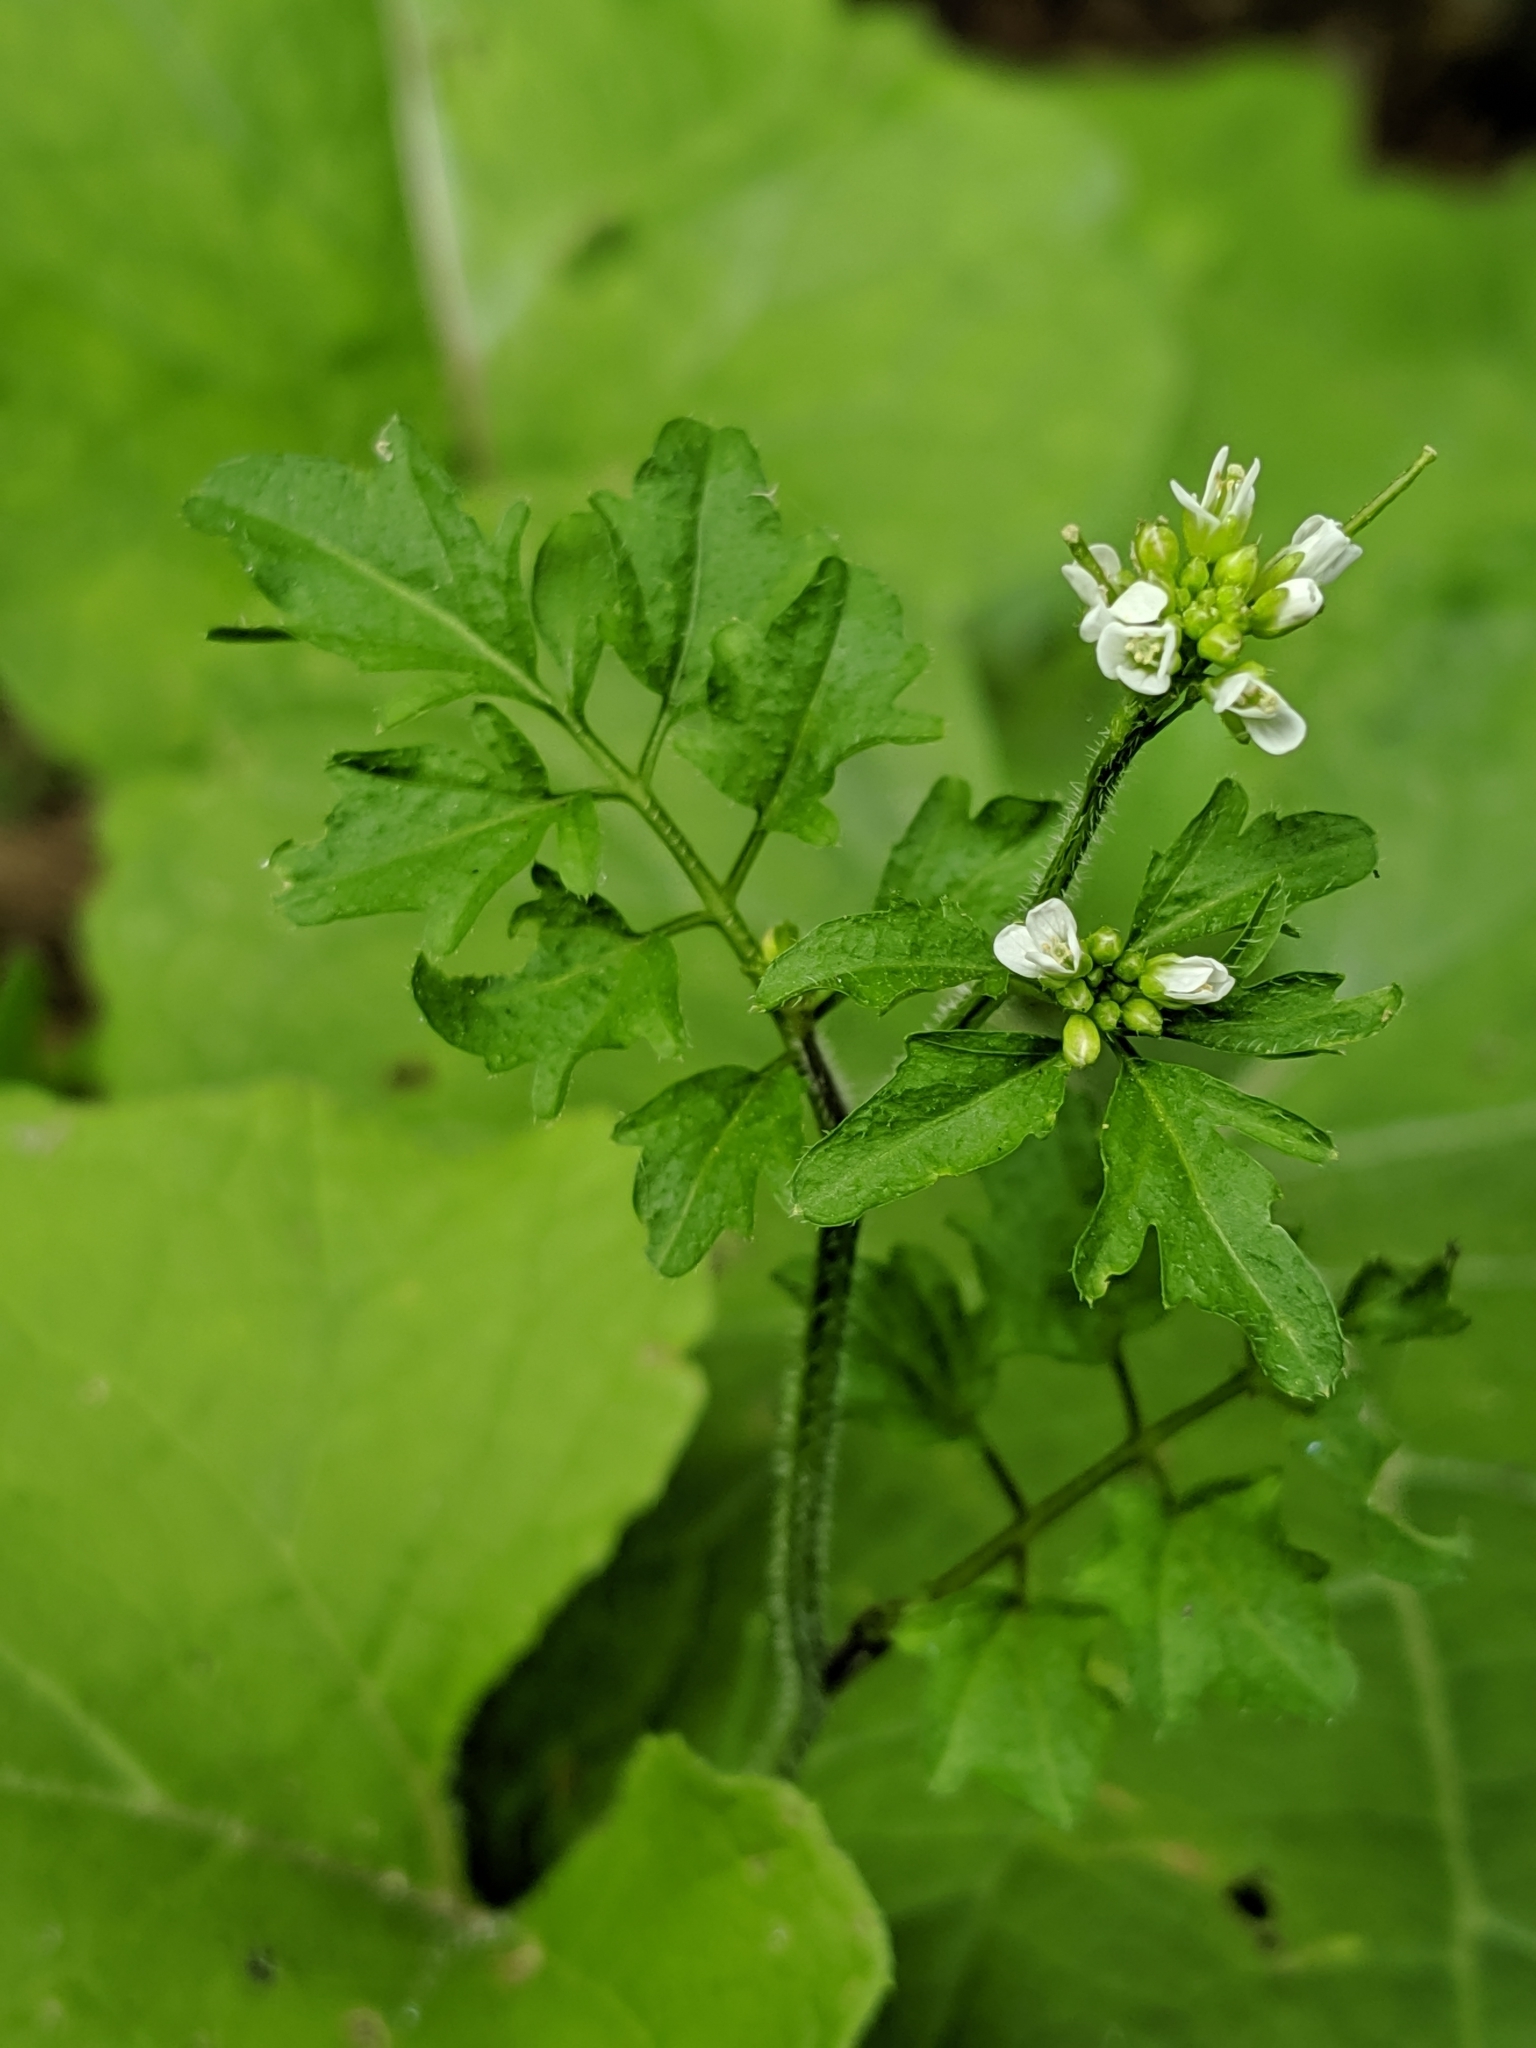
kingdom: Plantae
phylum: Tracheophyta
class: Magnoliopsida
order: Brassicales
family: Brassicaceae
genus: Cardamine
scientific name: Cardamine flexuosa
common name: Woodland bittercress
